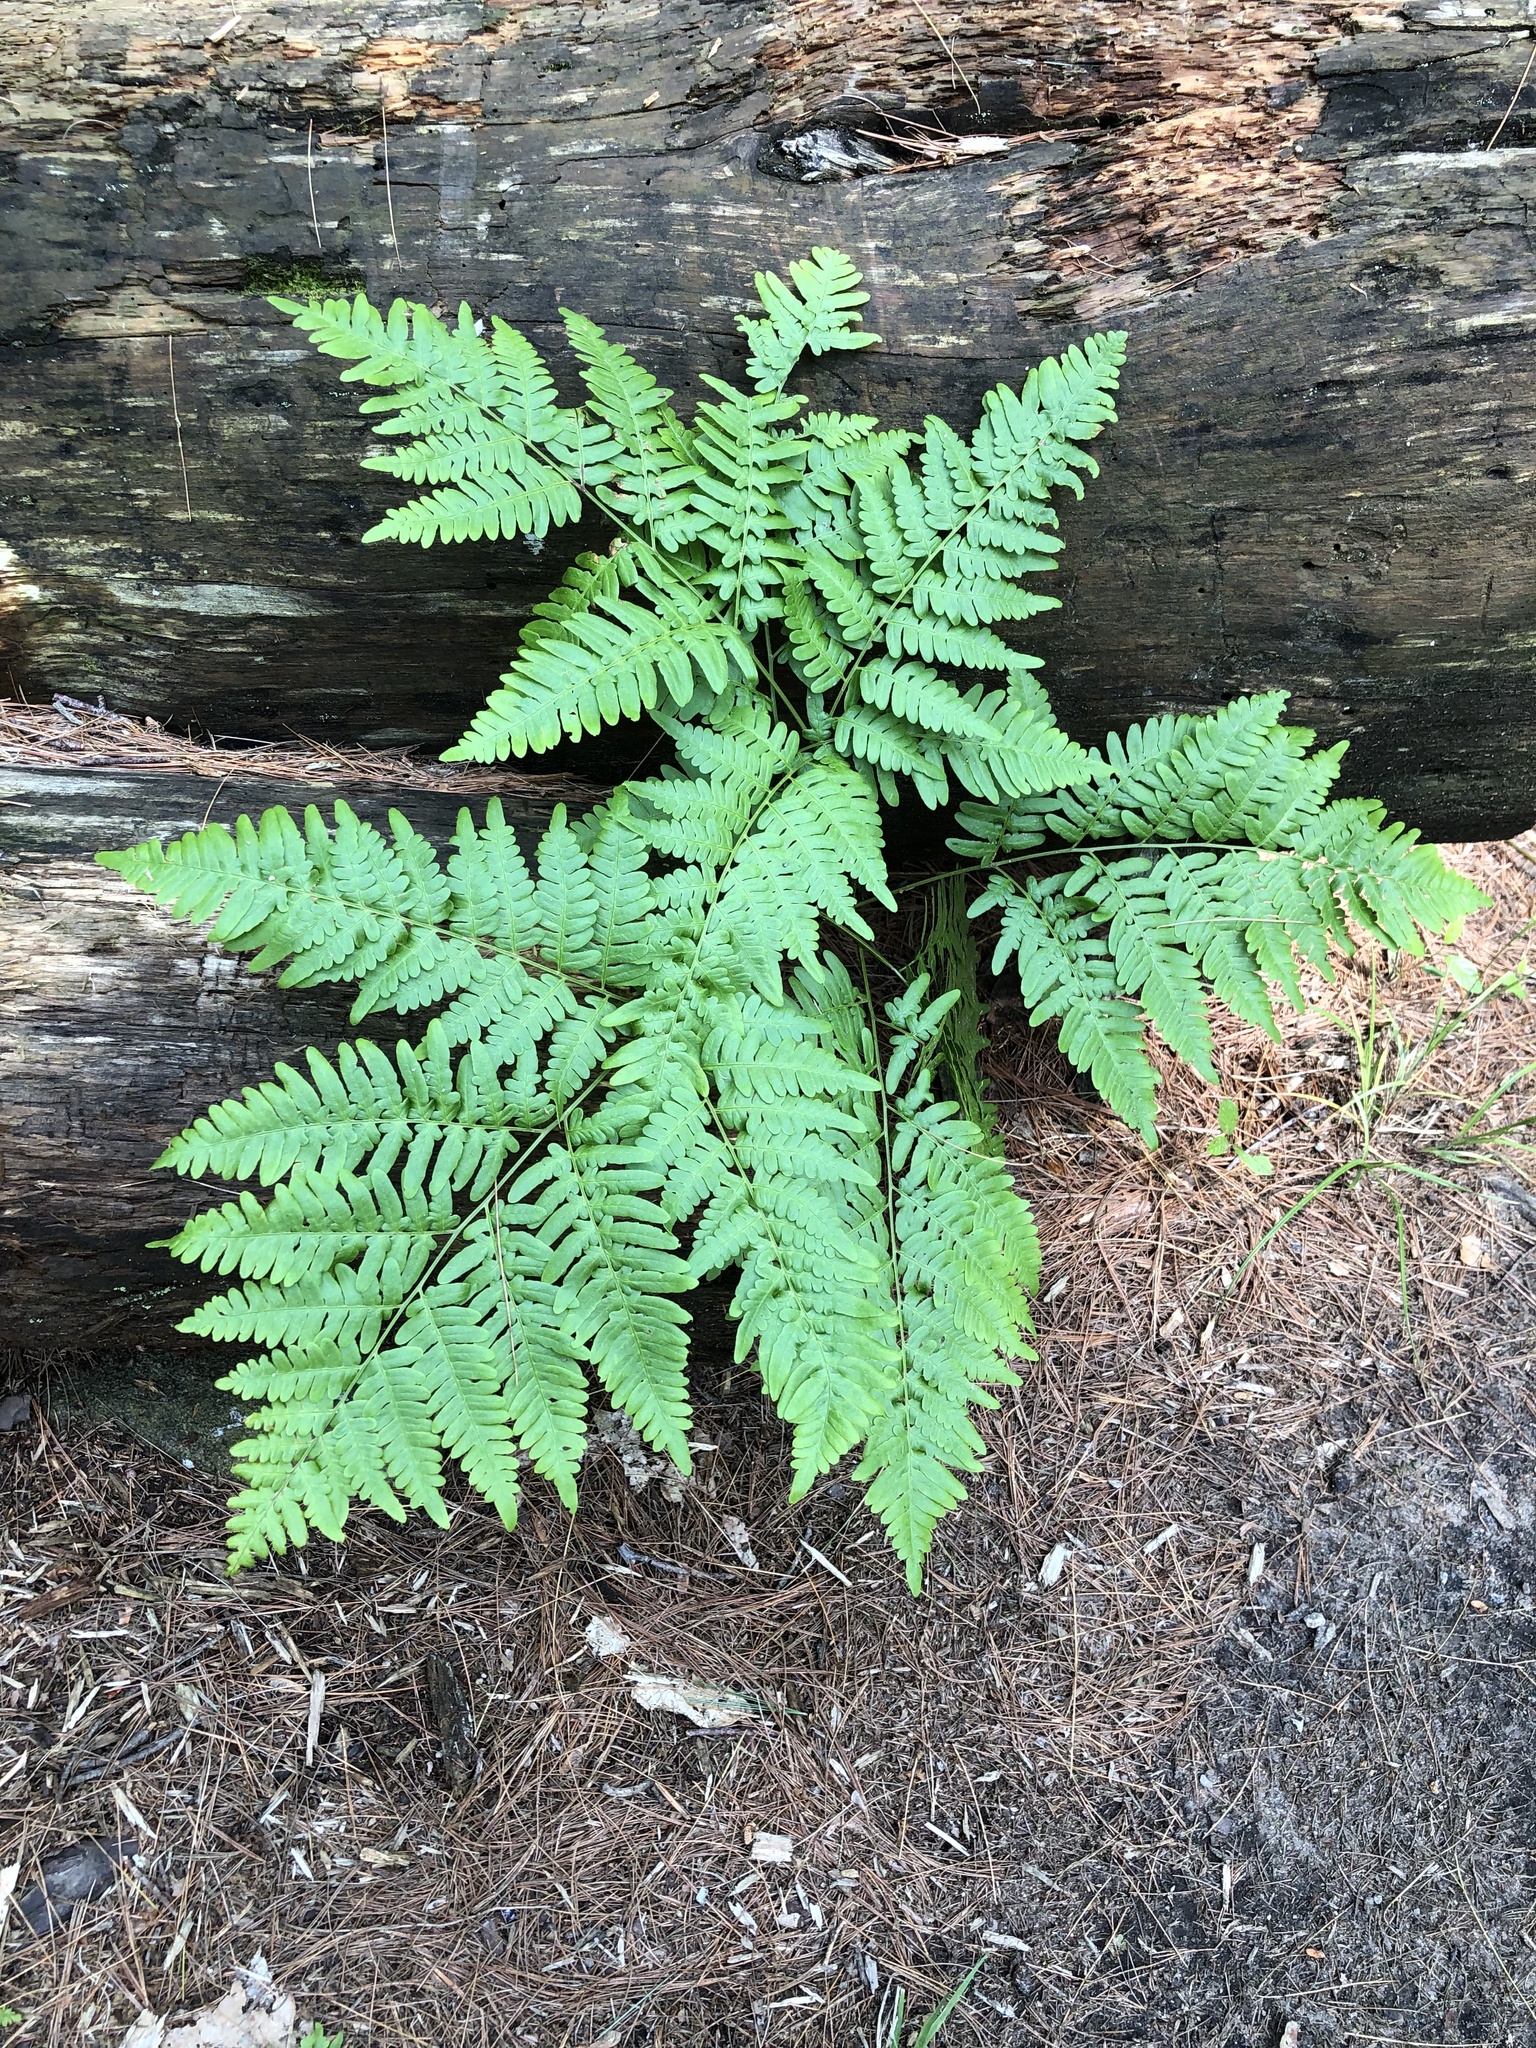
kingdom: Plantae
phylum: Tracheophyta
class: Polypodiopsida
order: Polypodiales
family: Dennstaedtiaceae
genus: Pteridium
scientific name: Pteridium aquilinum
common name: Bracken
